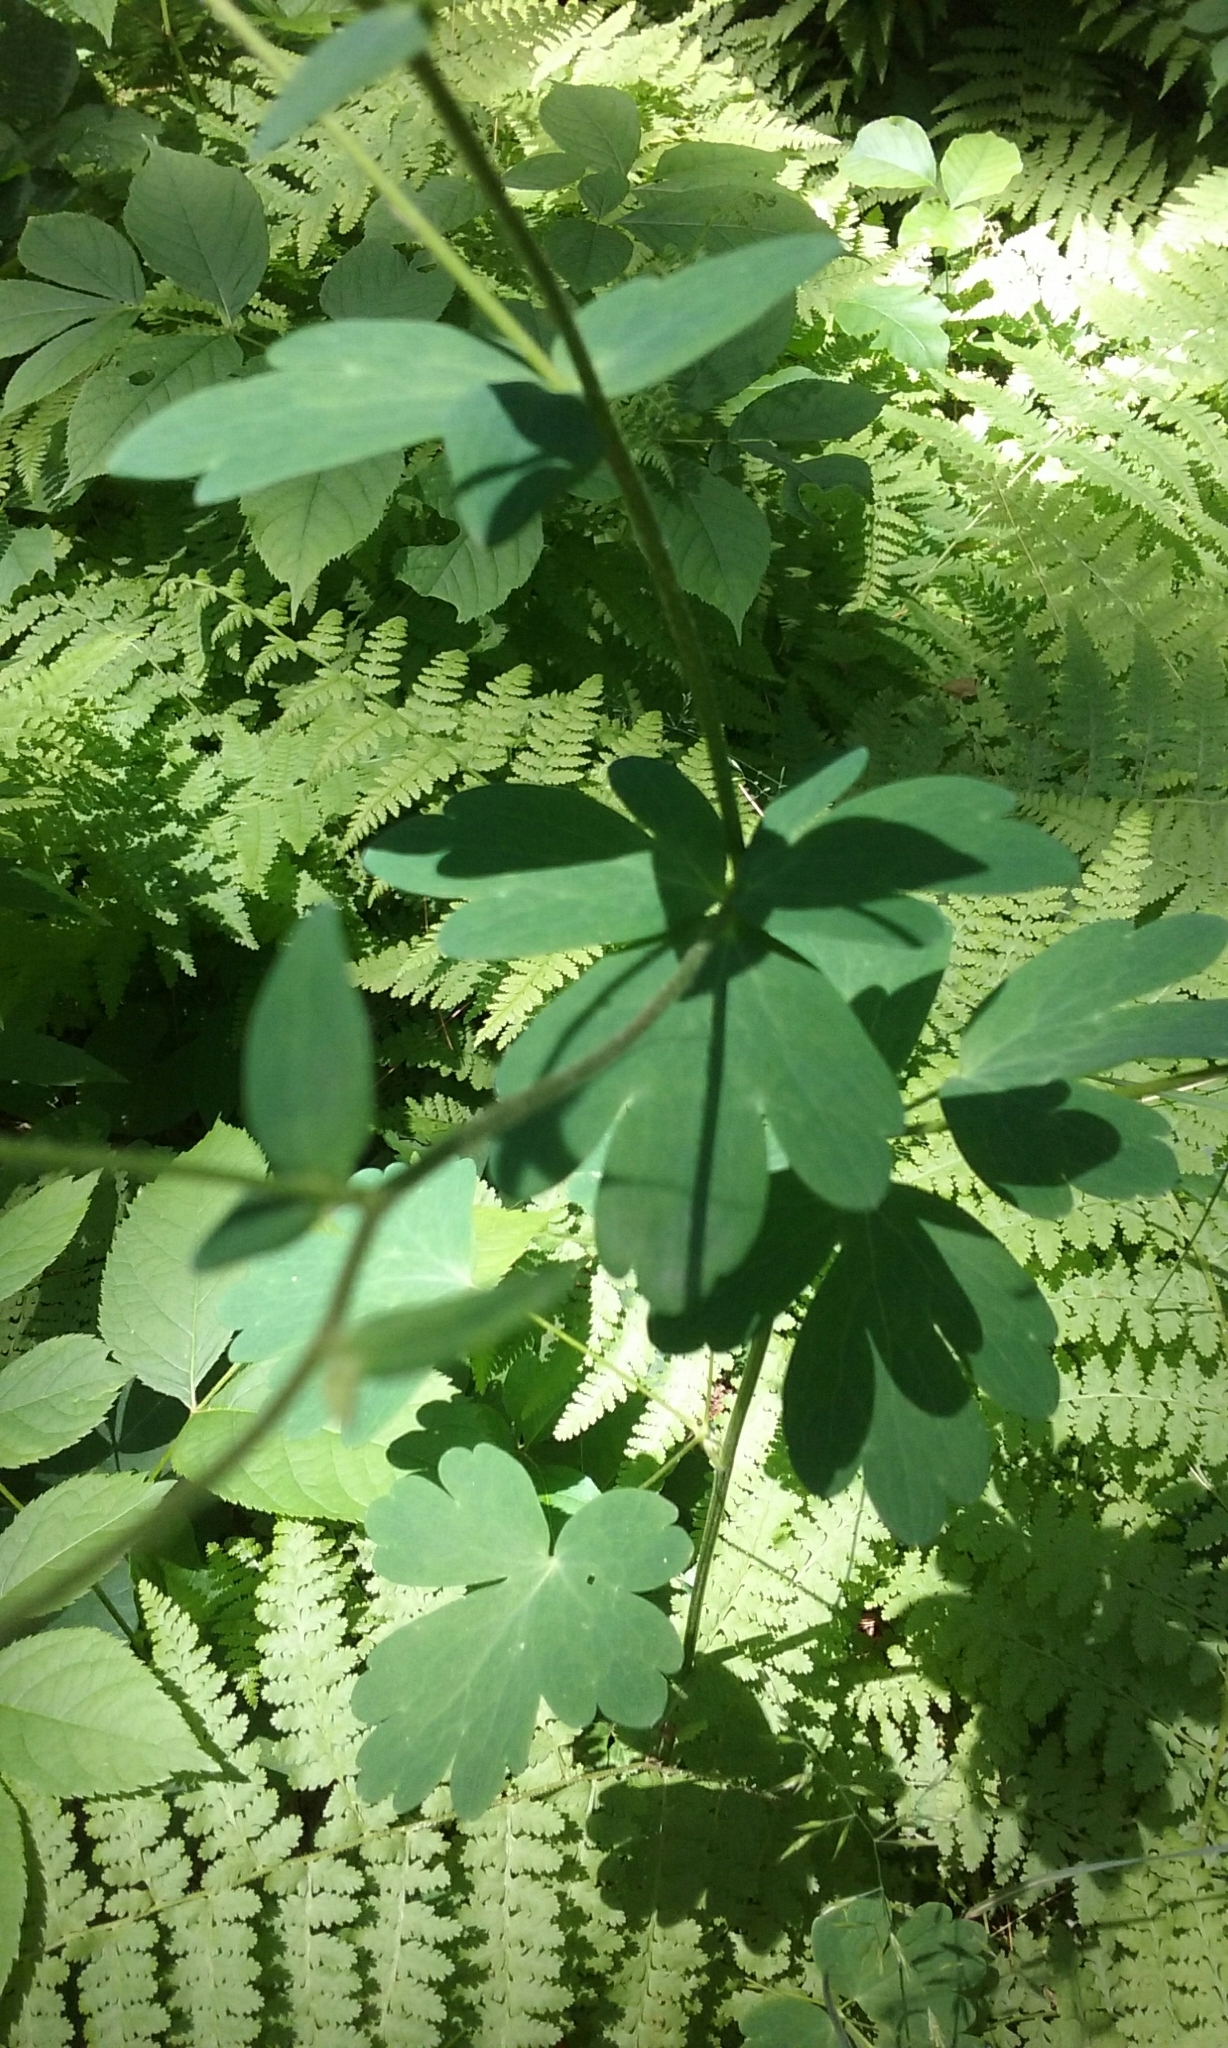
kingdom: Plantae
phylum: Tracheophyta
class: Magnoliopsida
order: Ranunculales
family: Ranunculaceae
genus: Aquilegia
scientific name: Aquilegia canadensis
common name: American columbine
